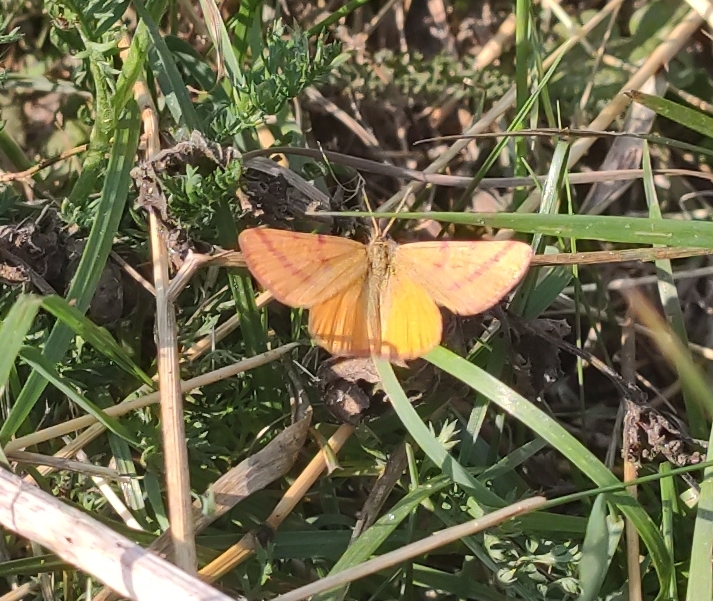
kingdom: Animalia
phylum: Arthropoda
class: Insecta
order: Lepidoptera
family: Geometridae
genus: Lythria
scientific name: Lythria purpuraria
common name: Purple-barred yellow
